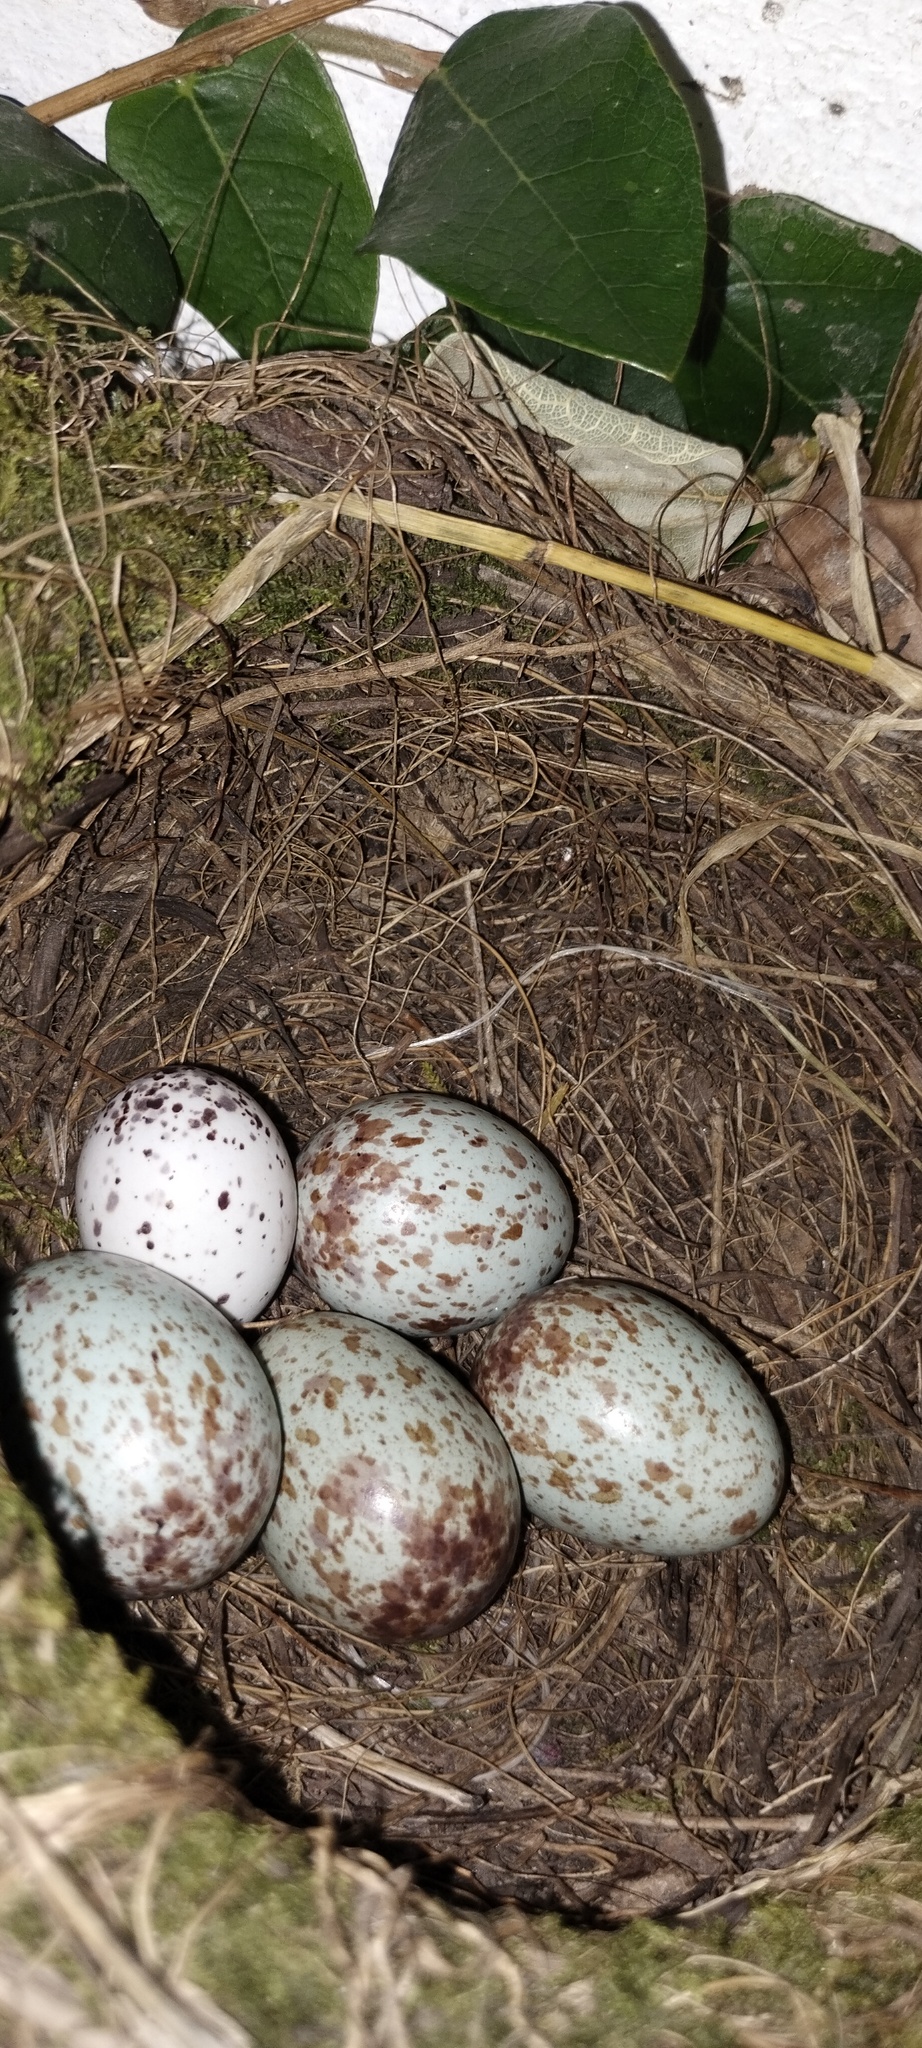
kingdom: Animalia
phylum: Chordata
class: Aves
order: Passeriformes
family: Turdidae
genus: Turdus
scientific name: Turdus rufiventris
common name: Rufous-bellied thrush
